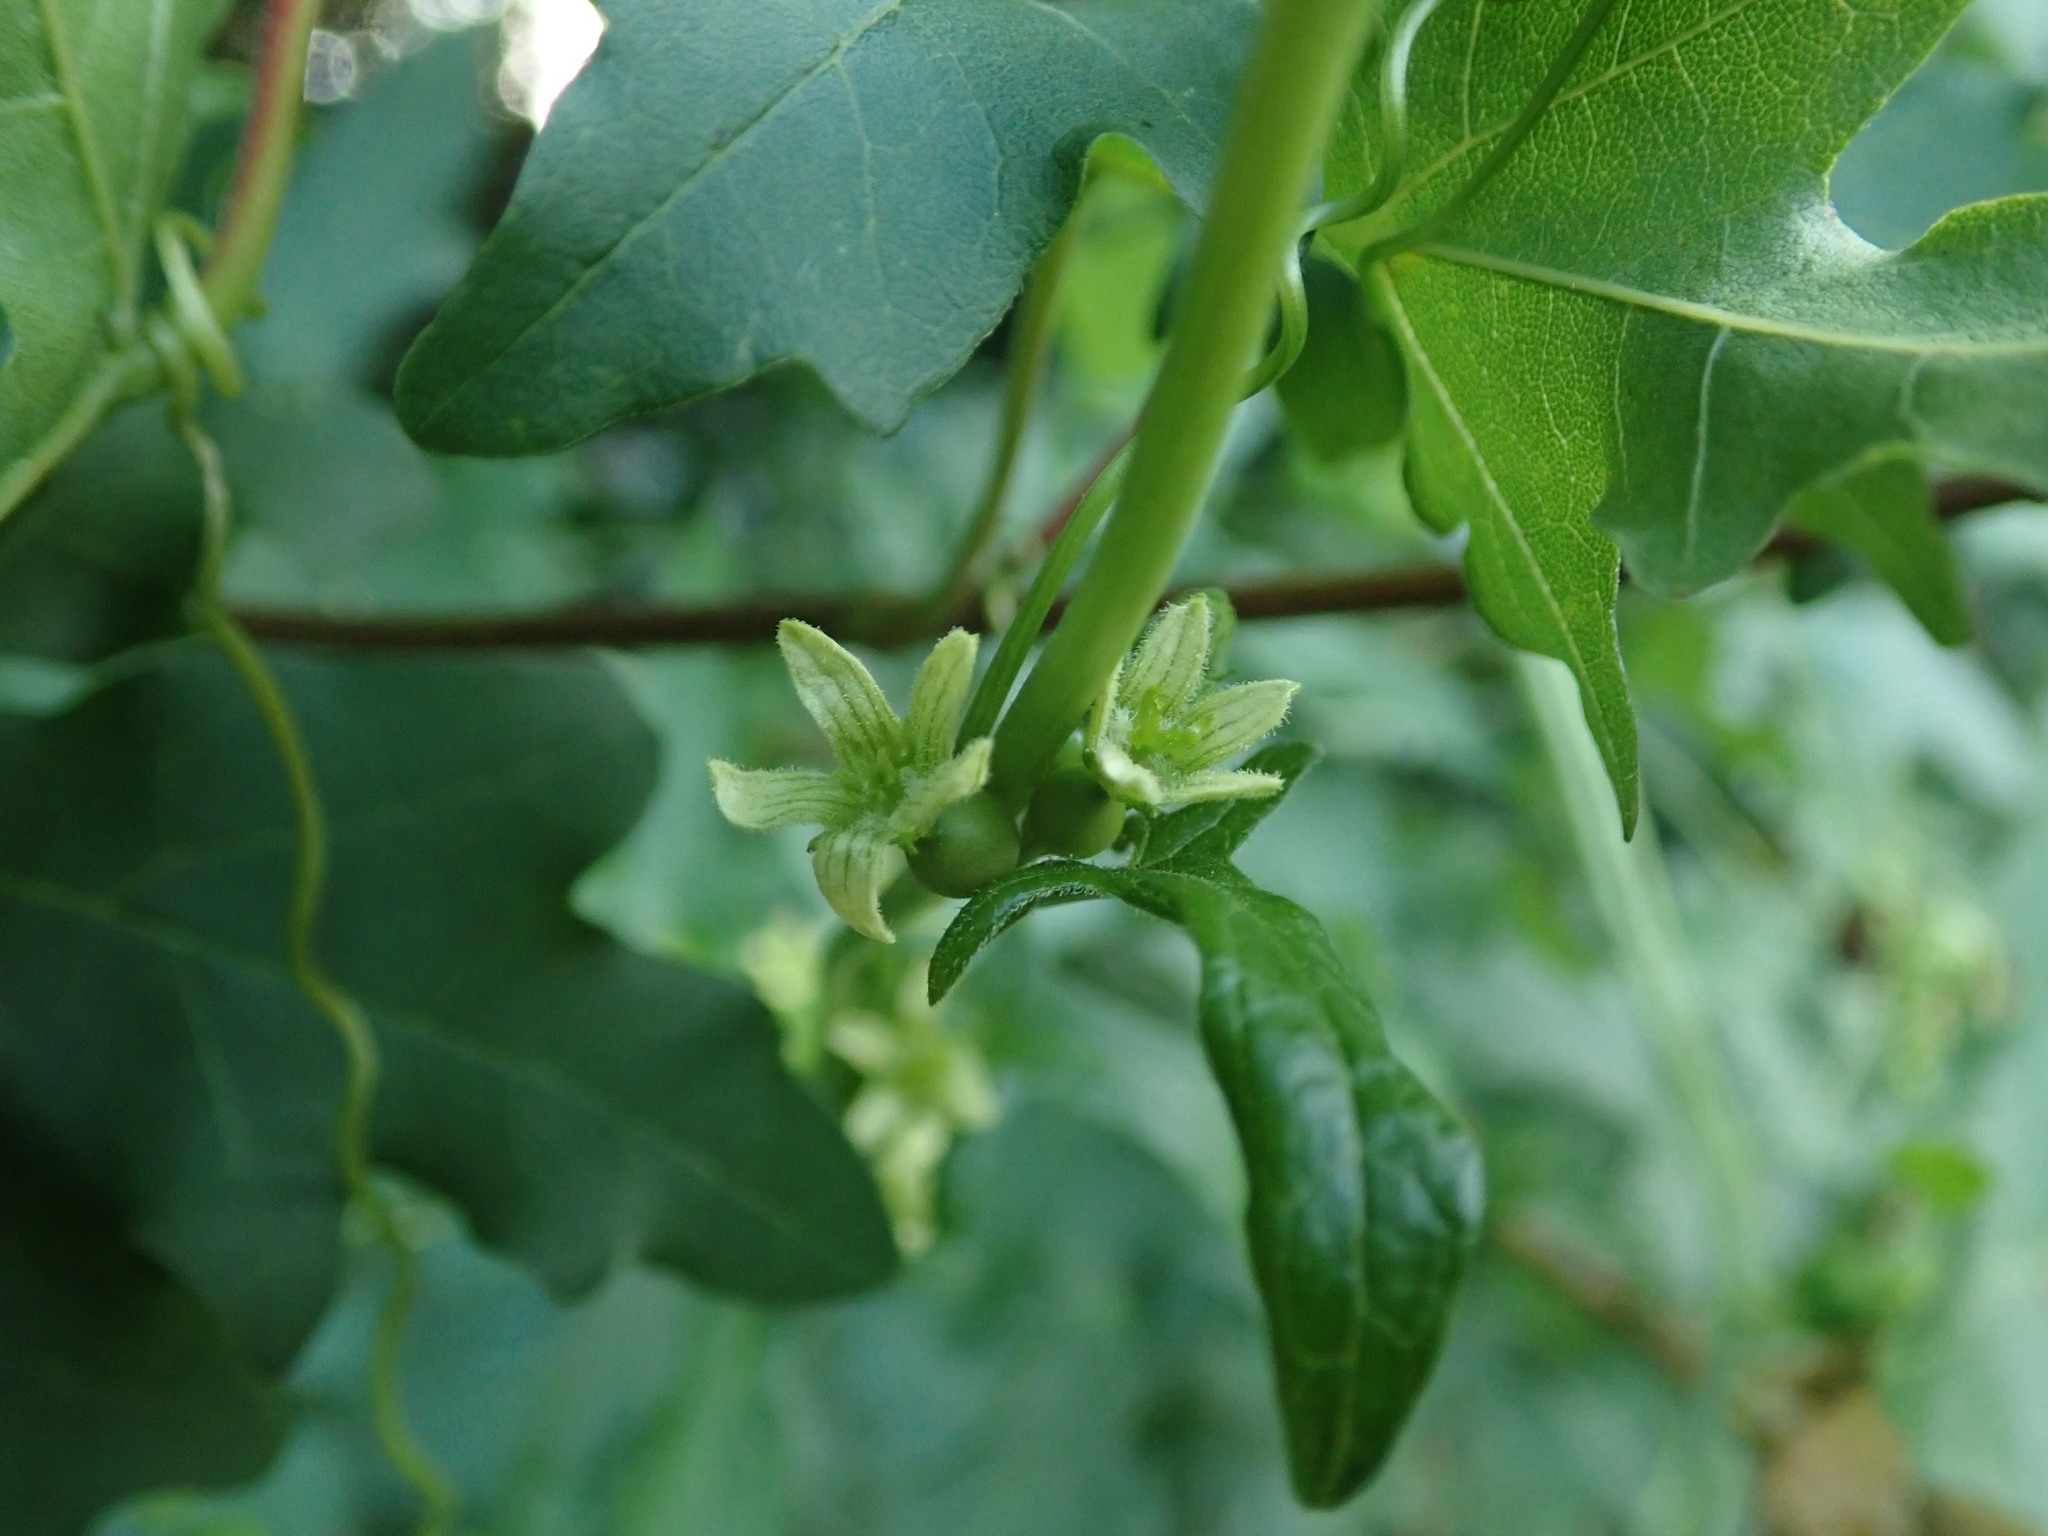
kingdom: Plantae
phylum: Tracheophyta
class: Magnoliopsida
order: Cucurbitales
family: Cucurbitaceae
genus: Bryonia
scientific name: Bryonia cretica
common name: Cretan bryony
